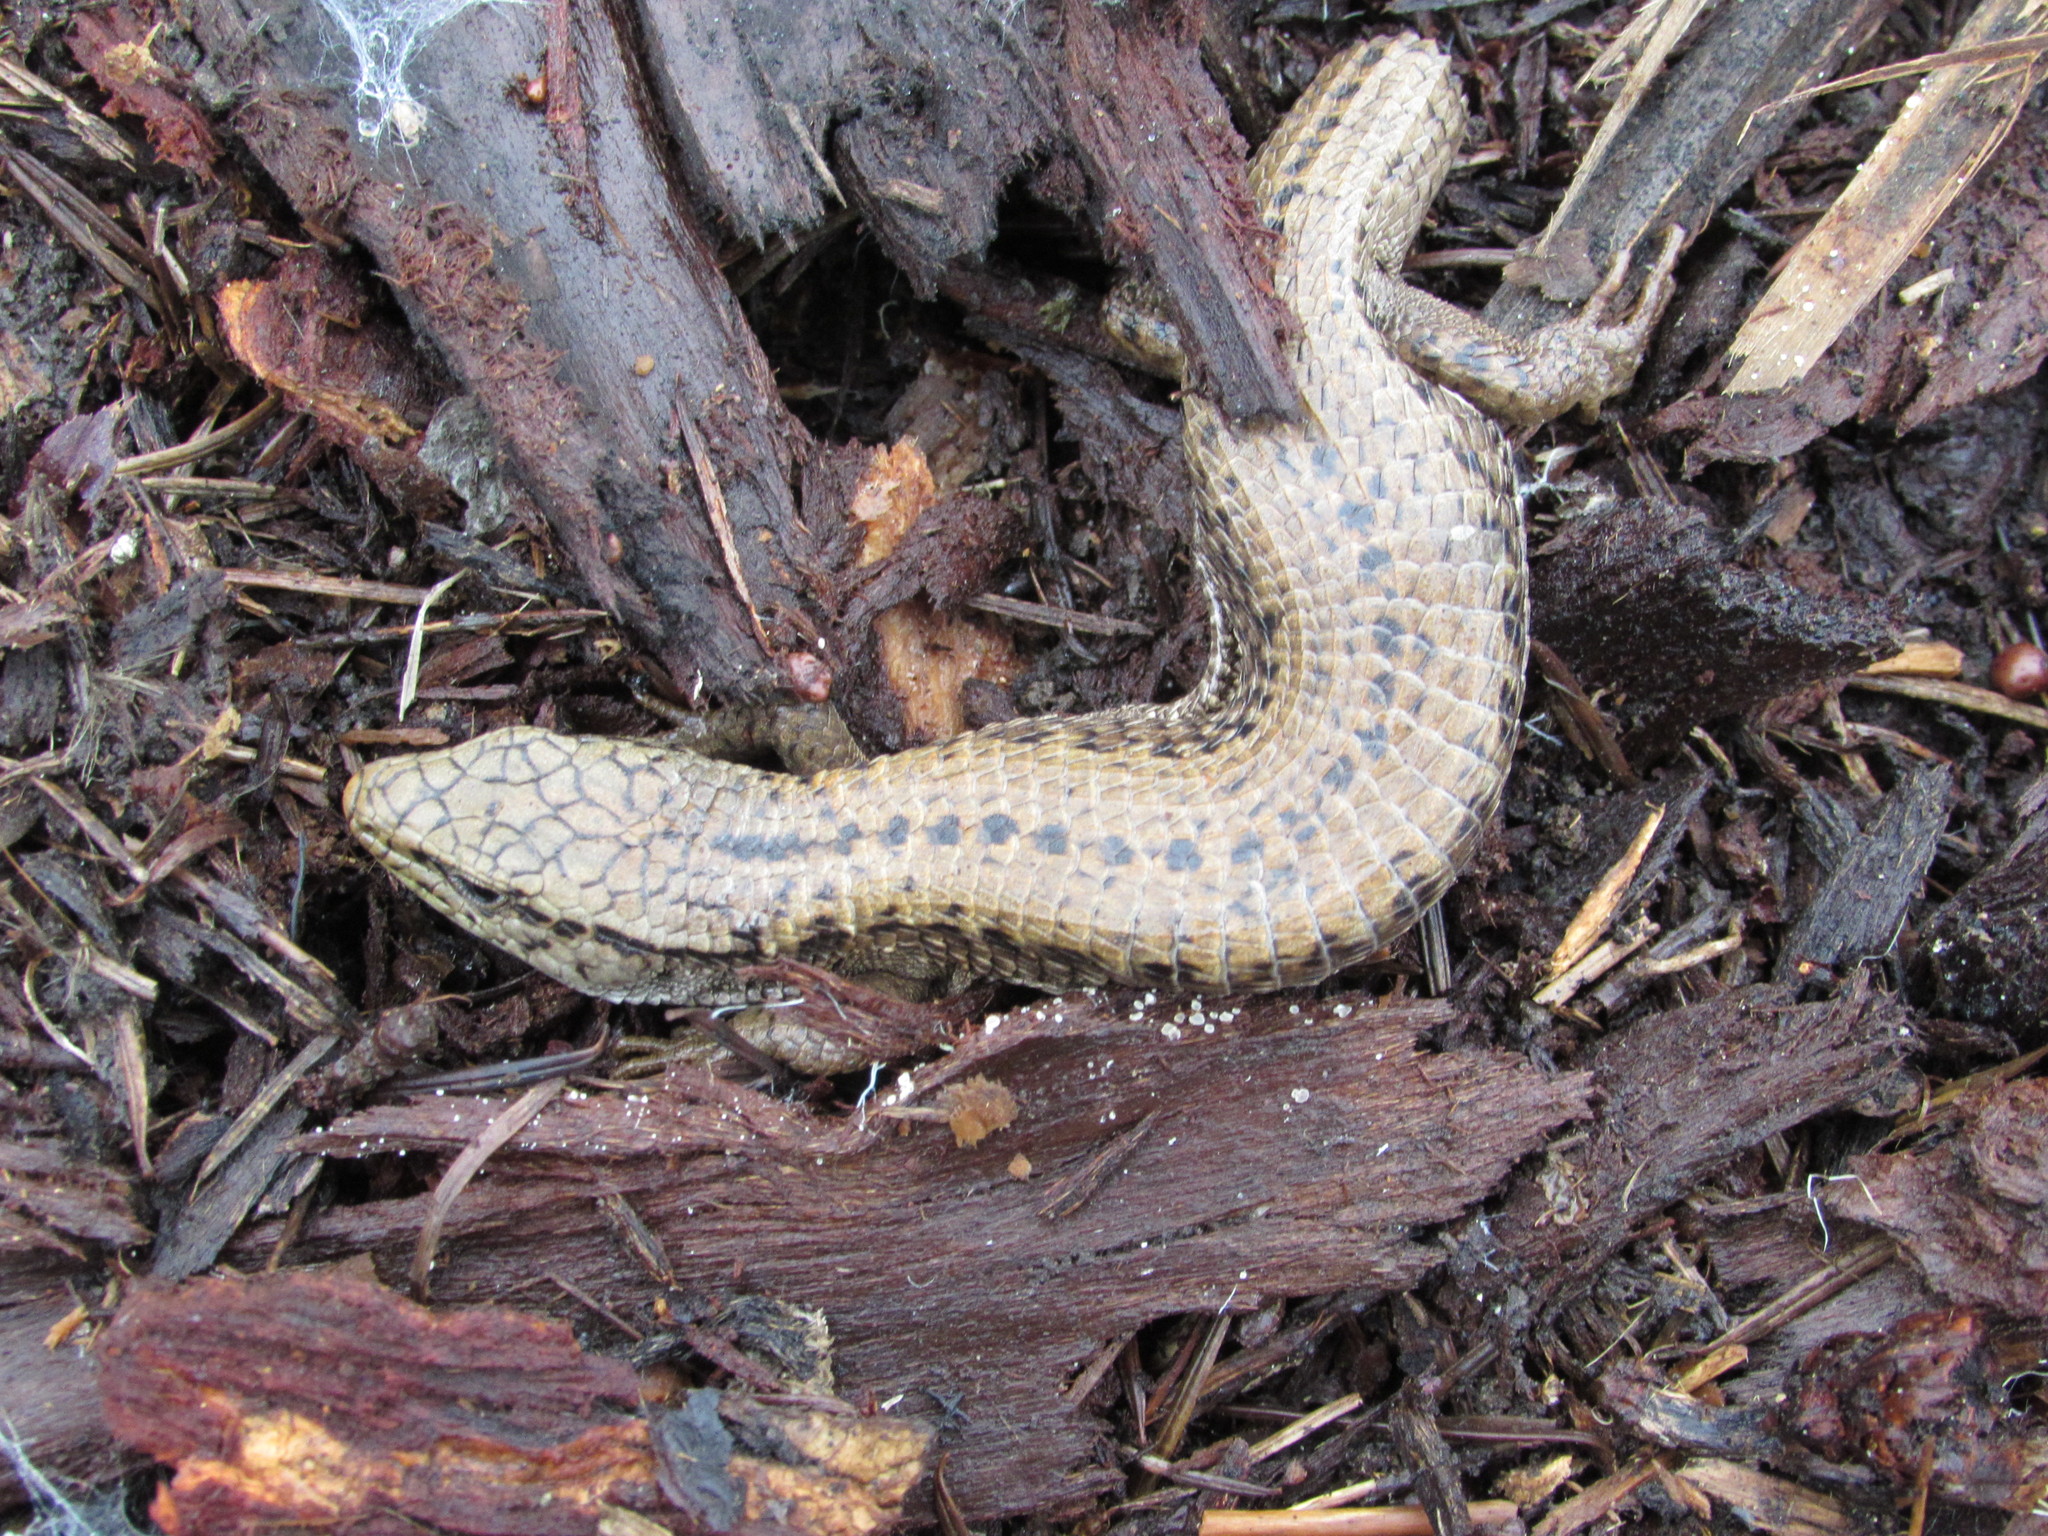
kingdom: Animalia
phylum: Chordata
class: Squamata
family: Anguidae
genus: Elgaria
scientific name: Elgaria coerulea
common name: Northern alligator lizard
